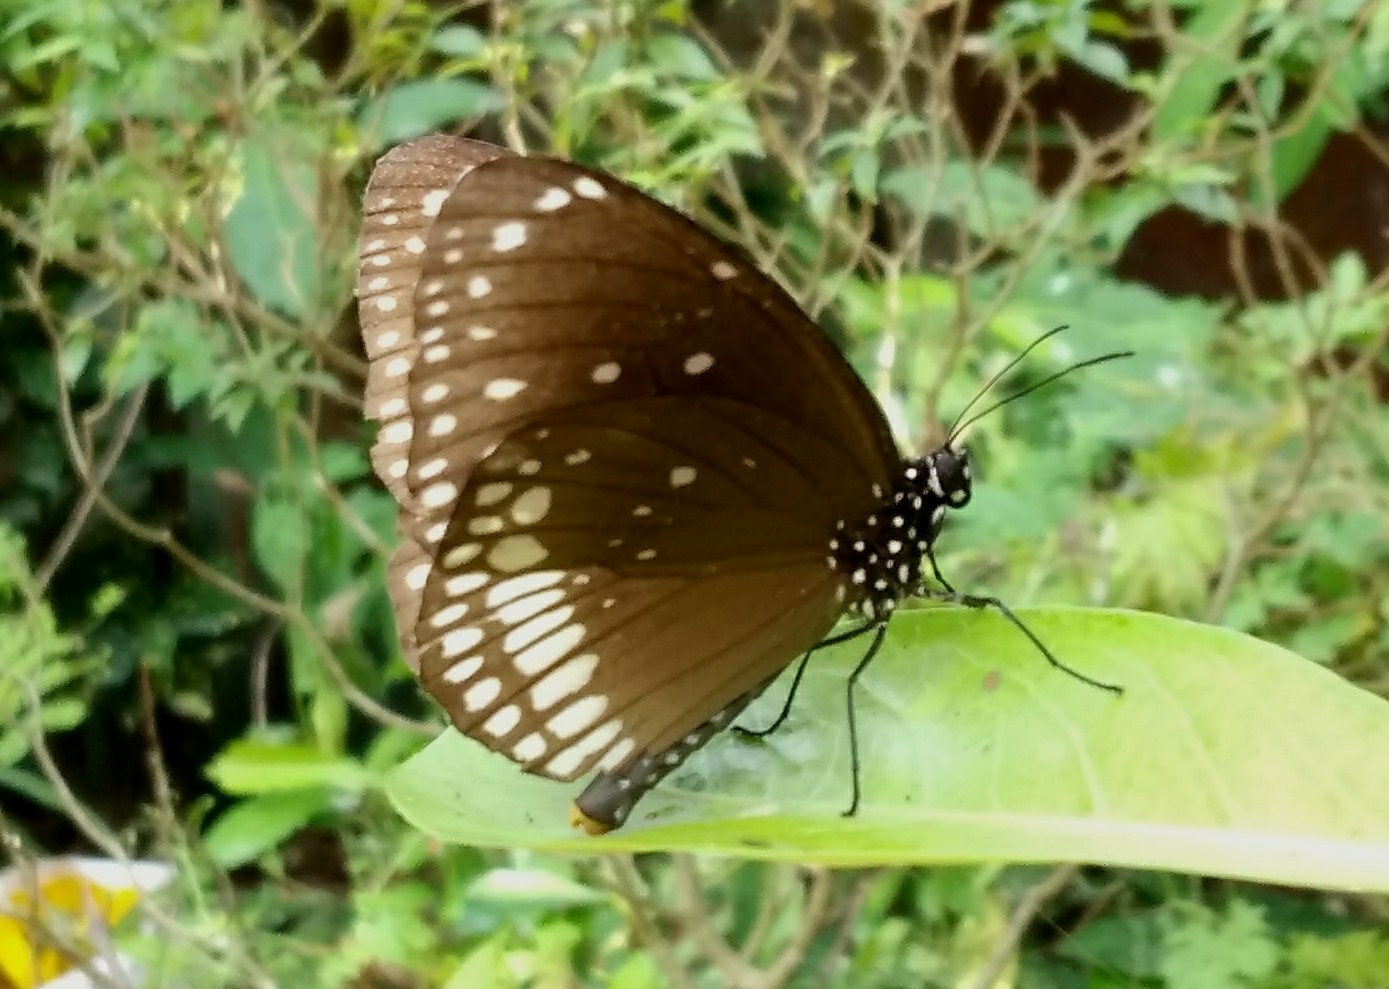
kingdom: Animalia
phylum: Arthropoda
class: Insecta
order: Lepidoptera
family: Nymphalidae
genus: Euploea
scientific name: Euploea core
